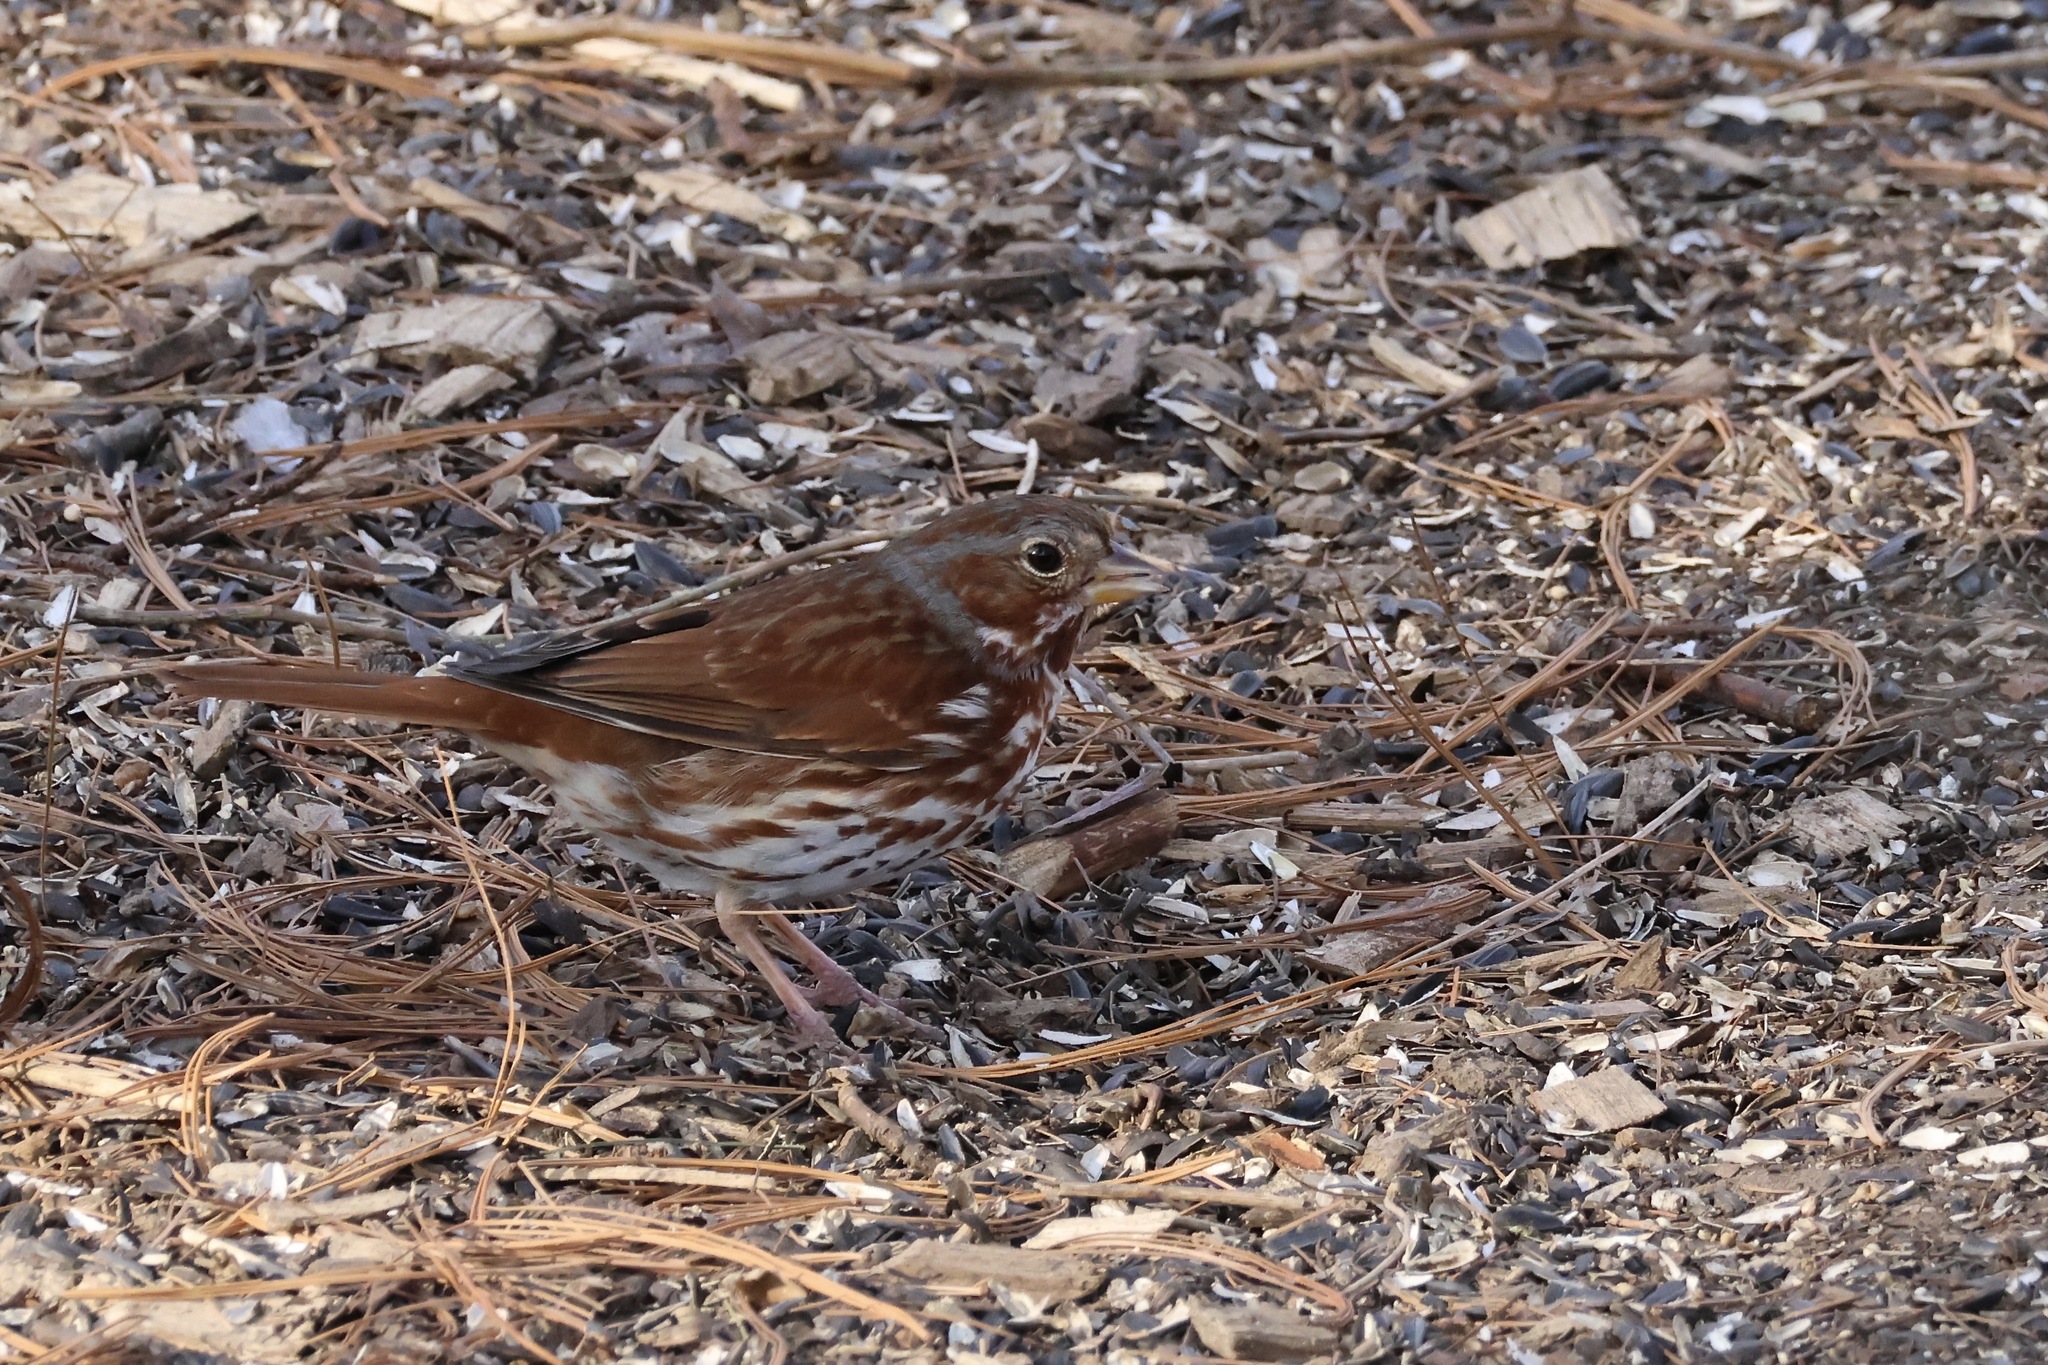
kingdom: Animalia
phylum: Chordata
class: Aves
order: Passeriformes
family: Passerellidae
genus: Passerella
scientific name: Passerella iliaca
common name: Fox sparrow
